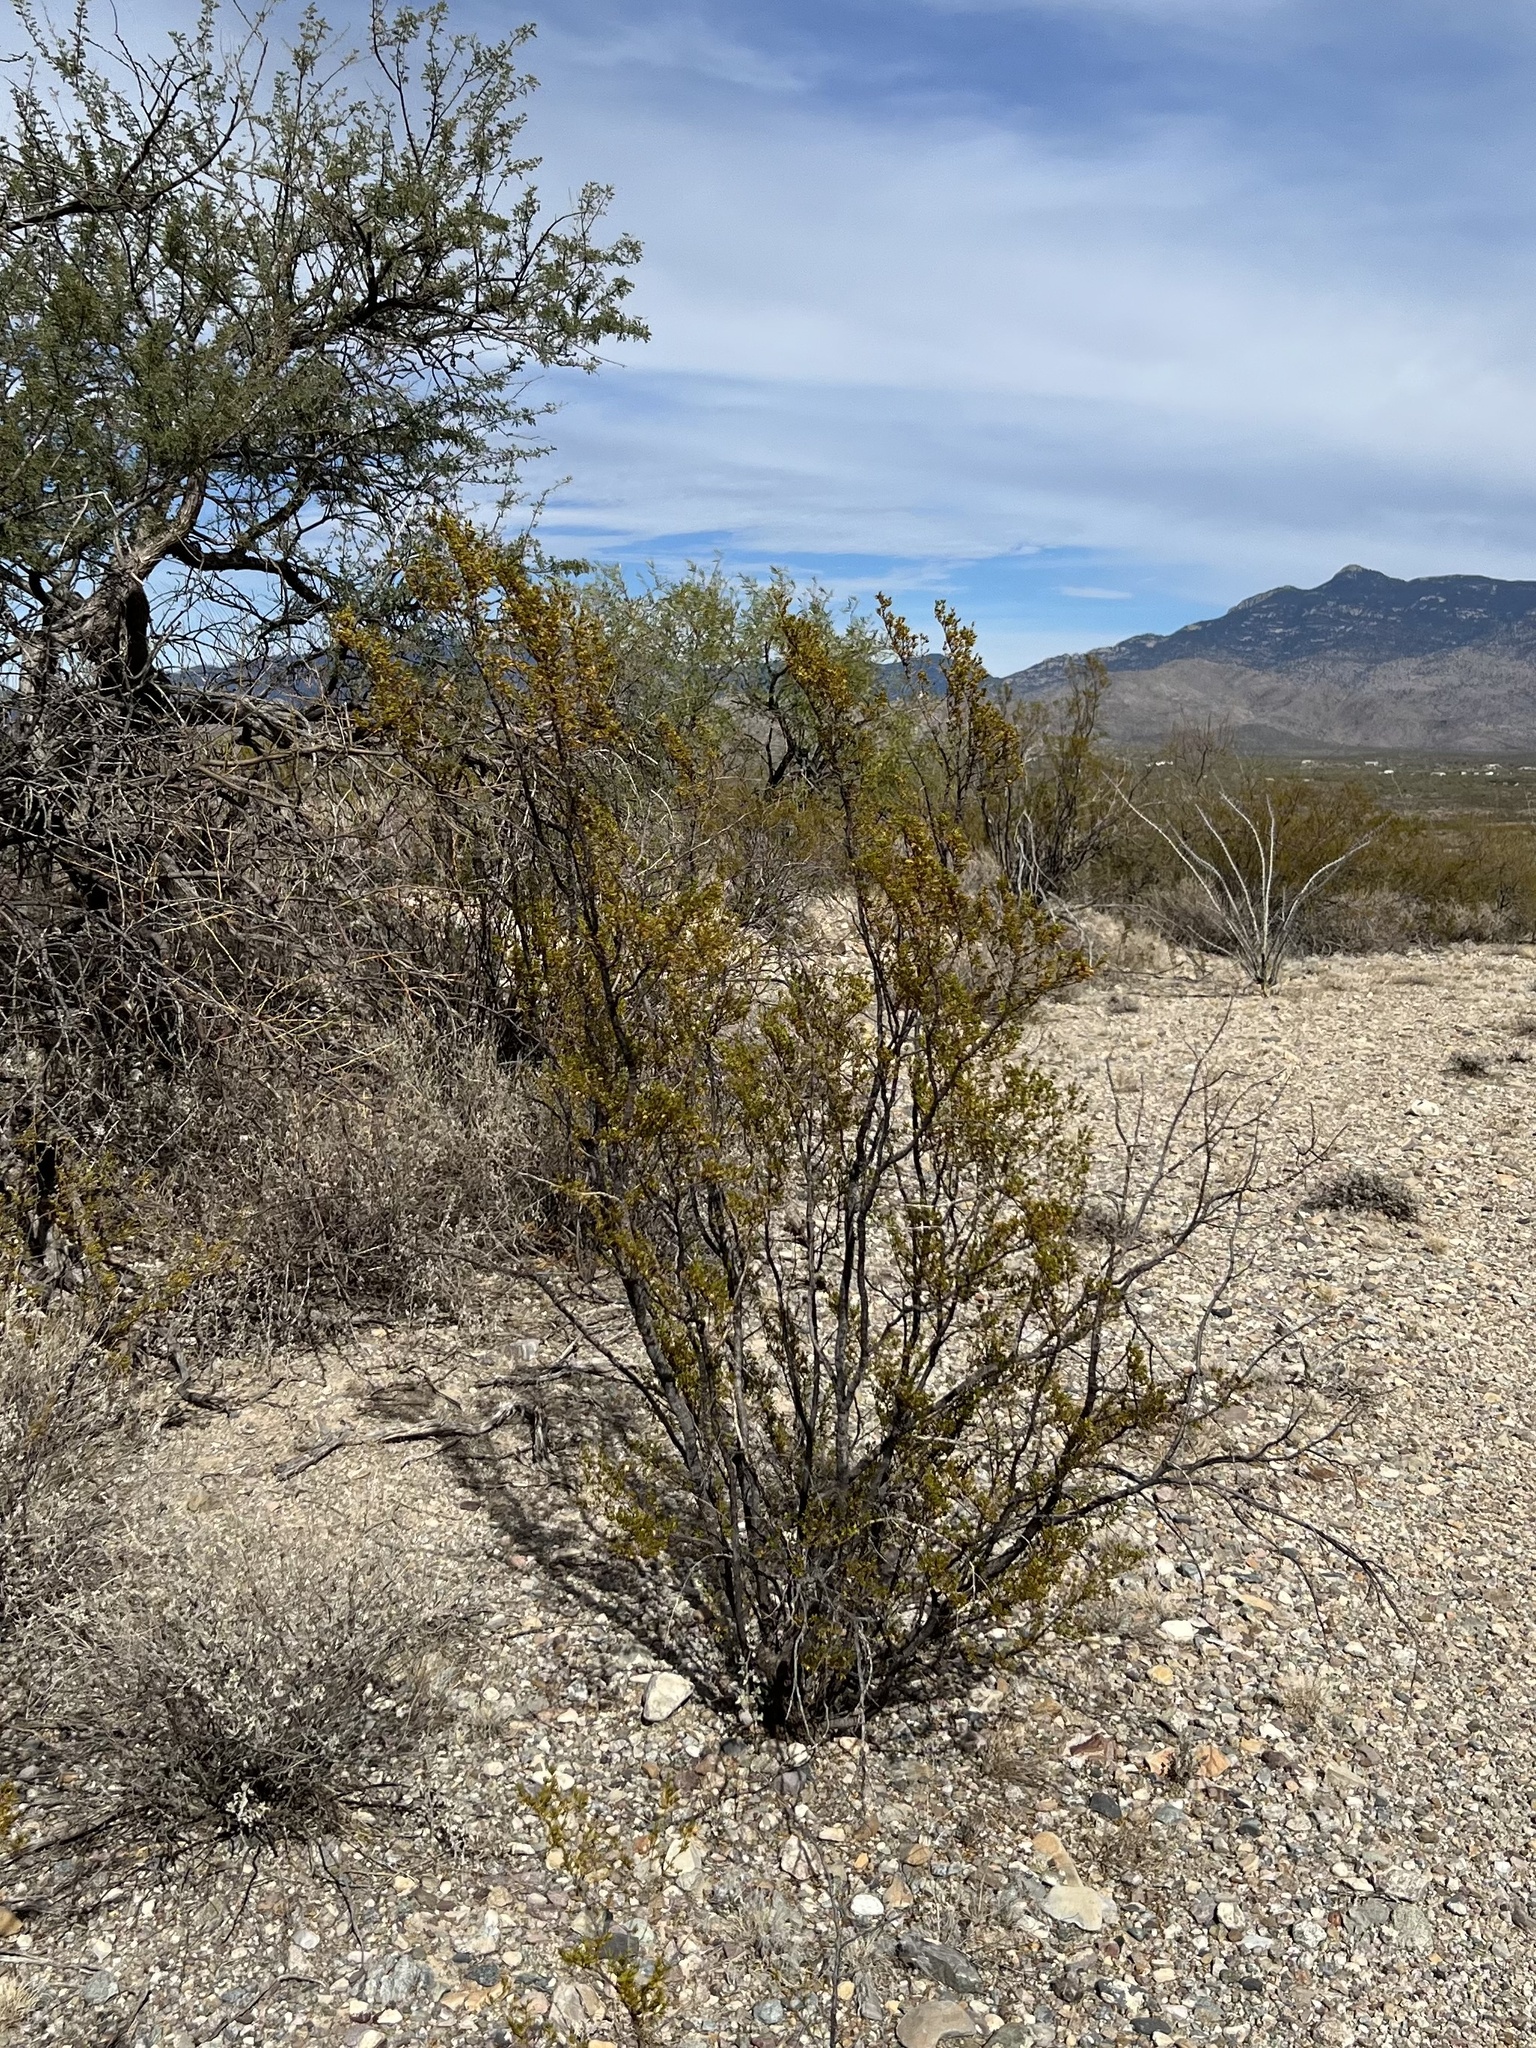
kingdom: Plantae
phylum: Tracheophyta
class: Magnoliopsida
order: Zygophyllales
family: Zygophyllaceae
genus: Larrea
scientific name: Larrea tridentata
